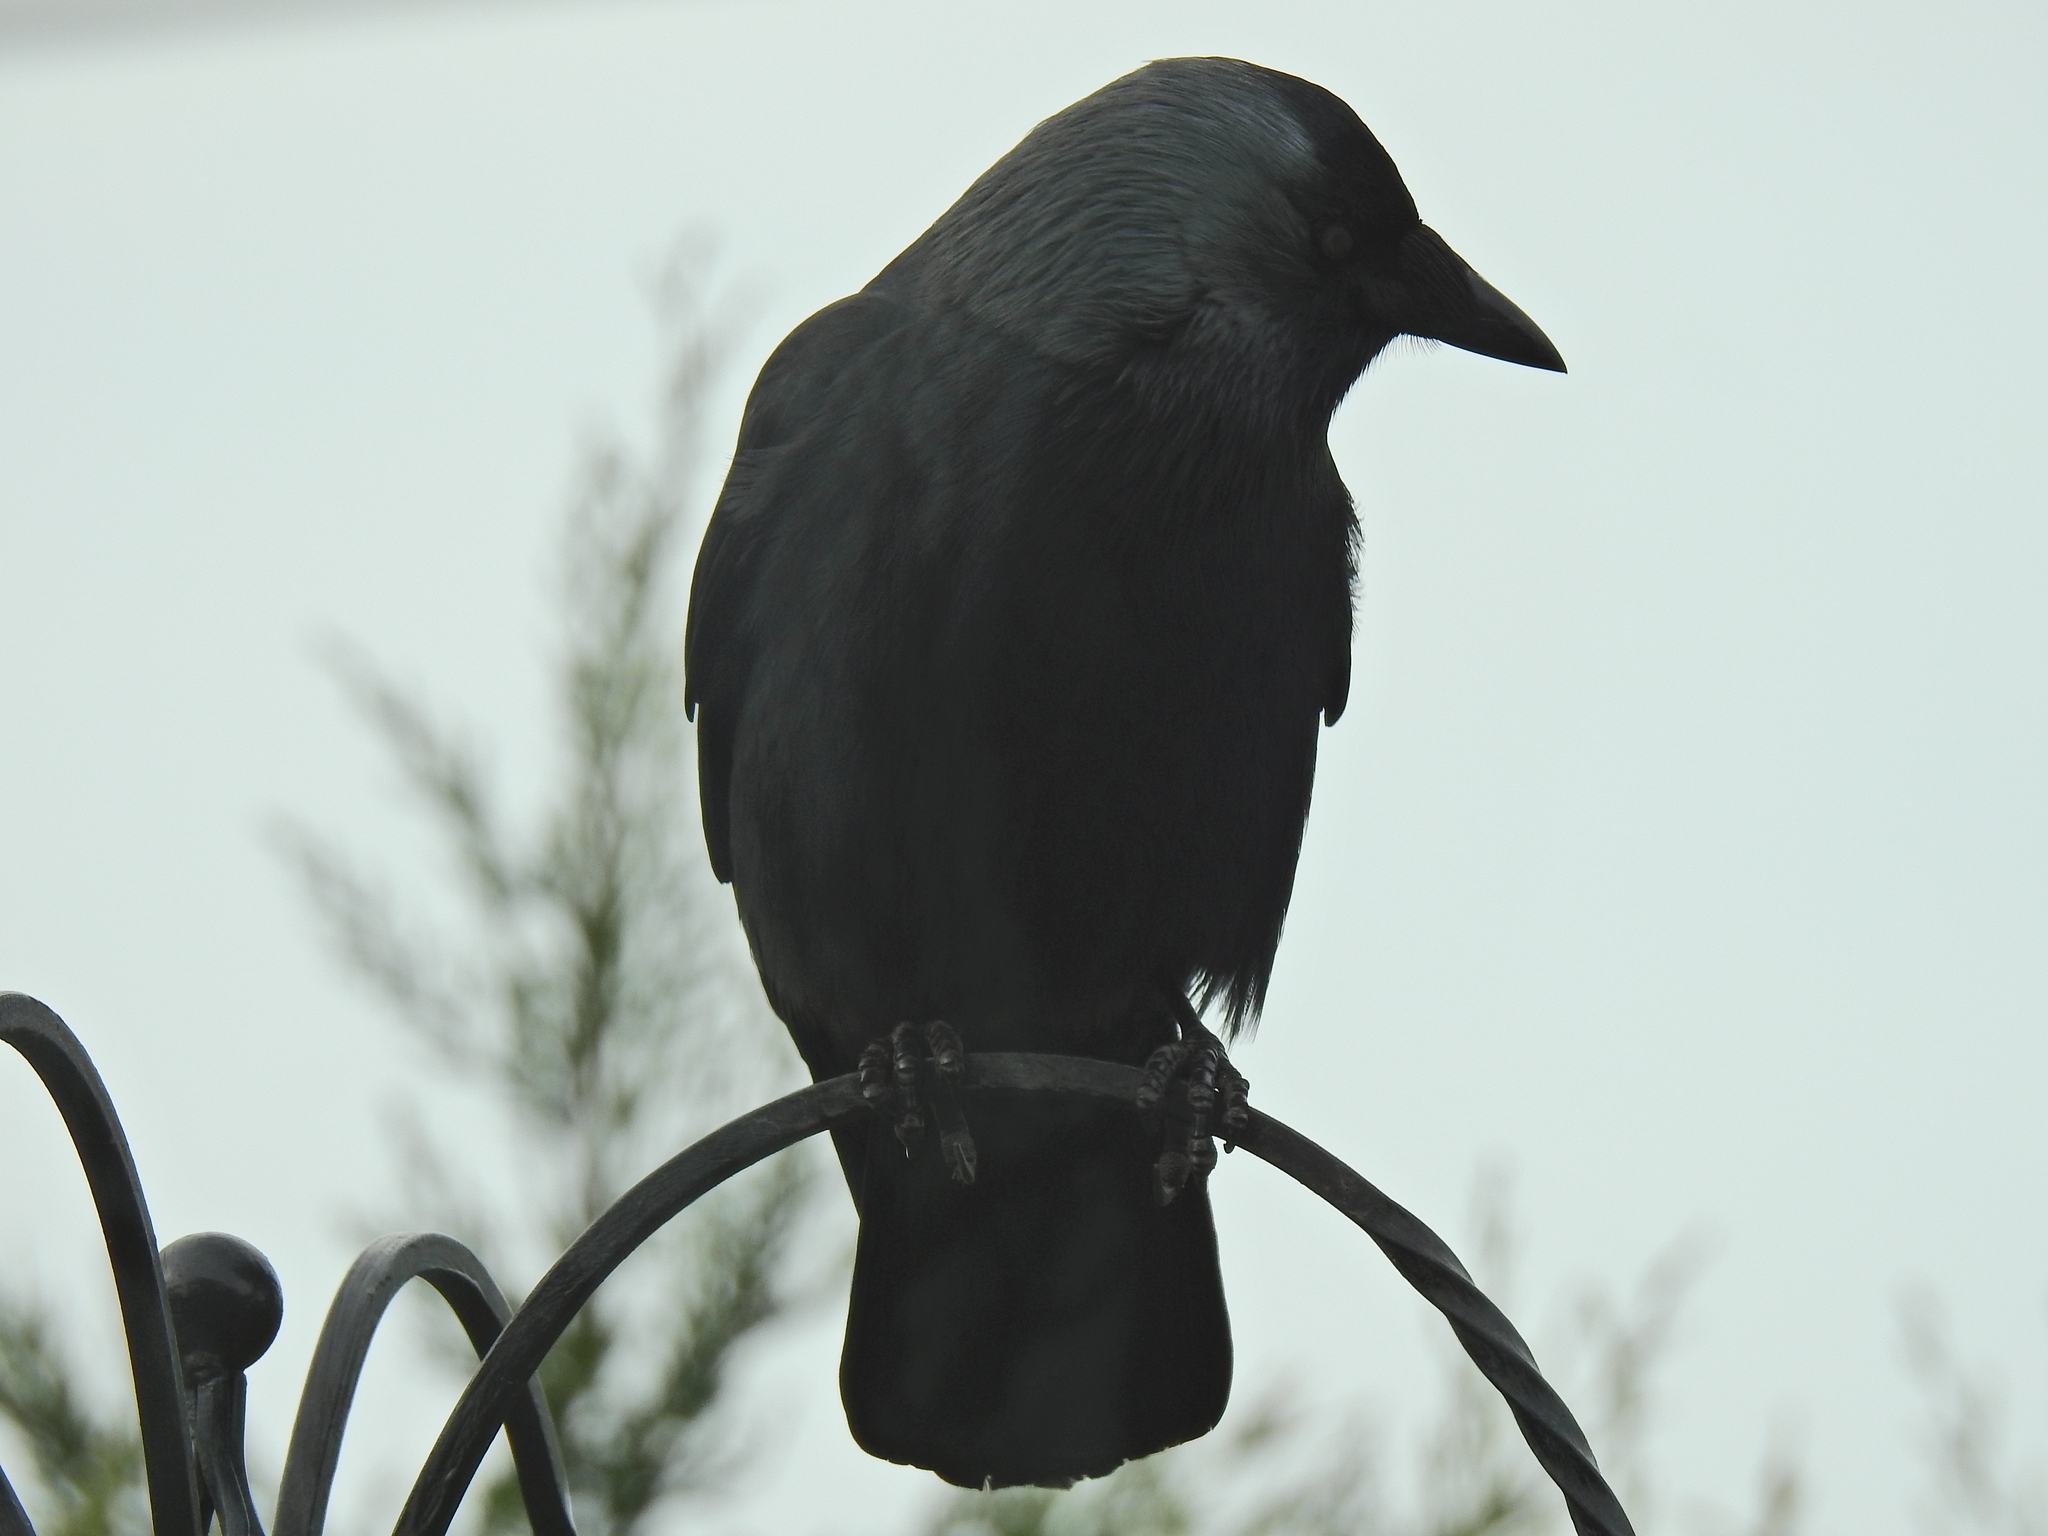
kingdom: Animalia
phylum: Chordata
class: Aves
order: Passeriformes
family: Corvidae
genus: Coloeus
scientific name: Coloeus monedula
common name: Western jackdaw
